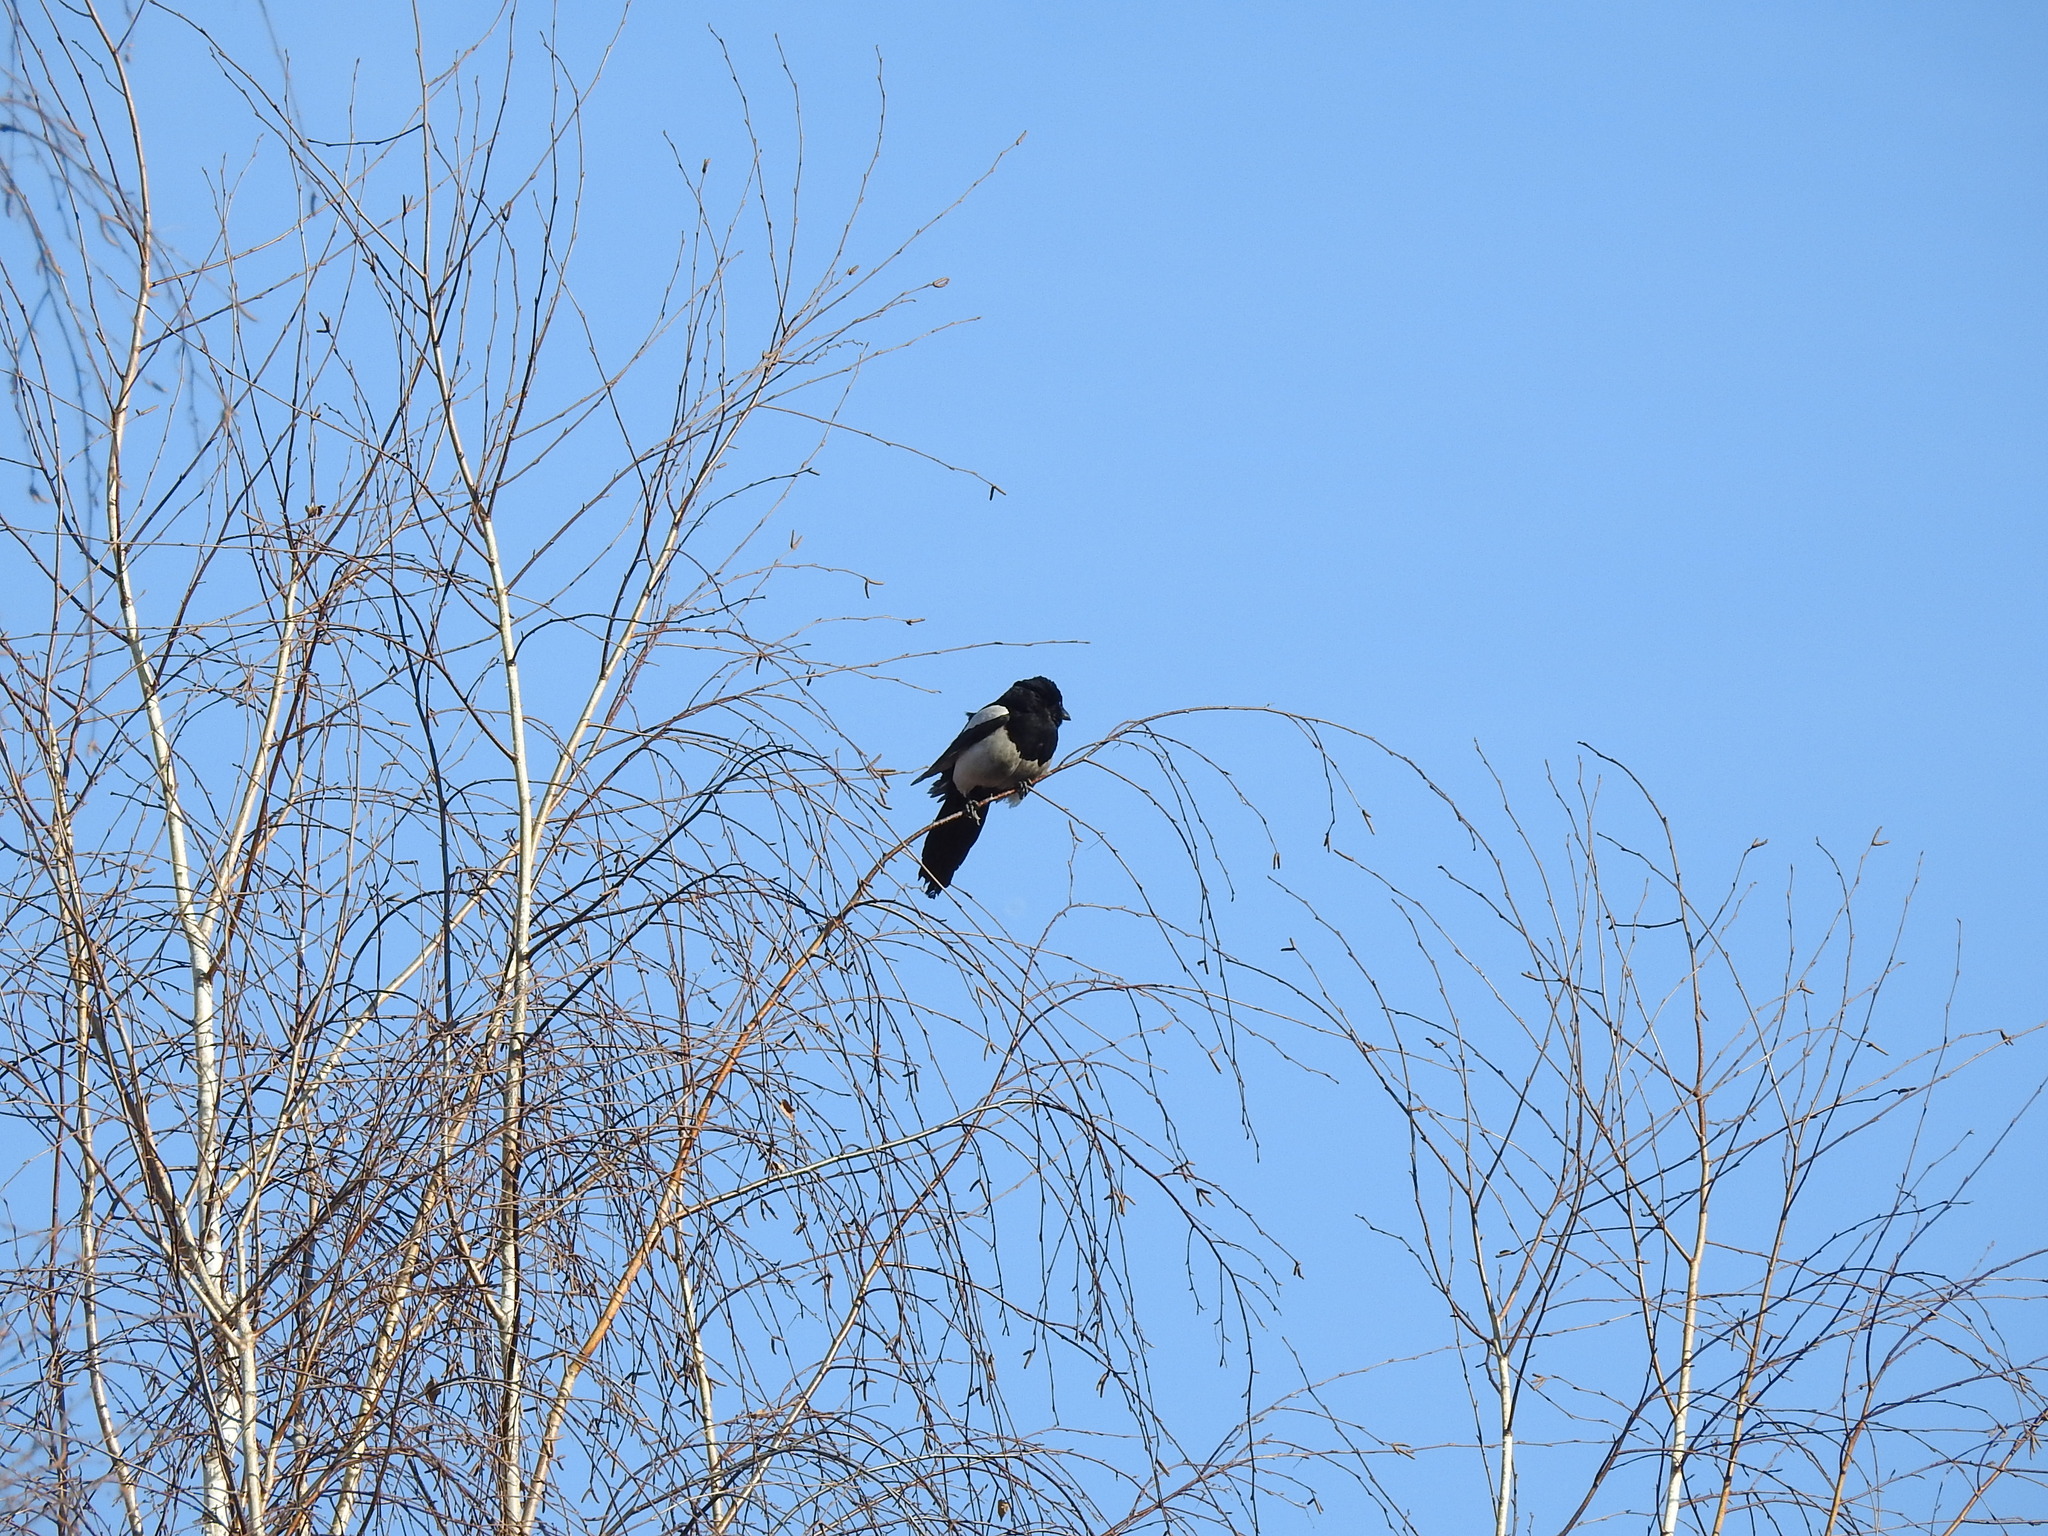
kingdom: Animalia
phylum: Chordata
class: Aves
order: Passeriformes
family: Corvidae
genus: Pica
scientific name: Pica pica
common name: Eurasian magpie
